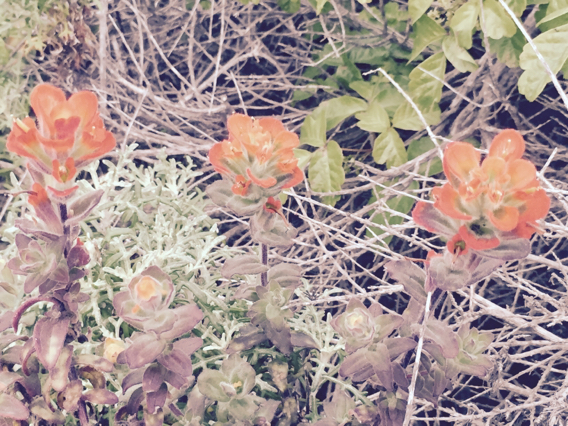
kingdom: Plantae
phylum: Tracheophyta
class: Magnoliopsida
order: Lamiales
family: Orobanchaceae
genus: Castilleja
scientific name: Castilleja latifolia
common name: Monterey indian paintbrush
